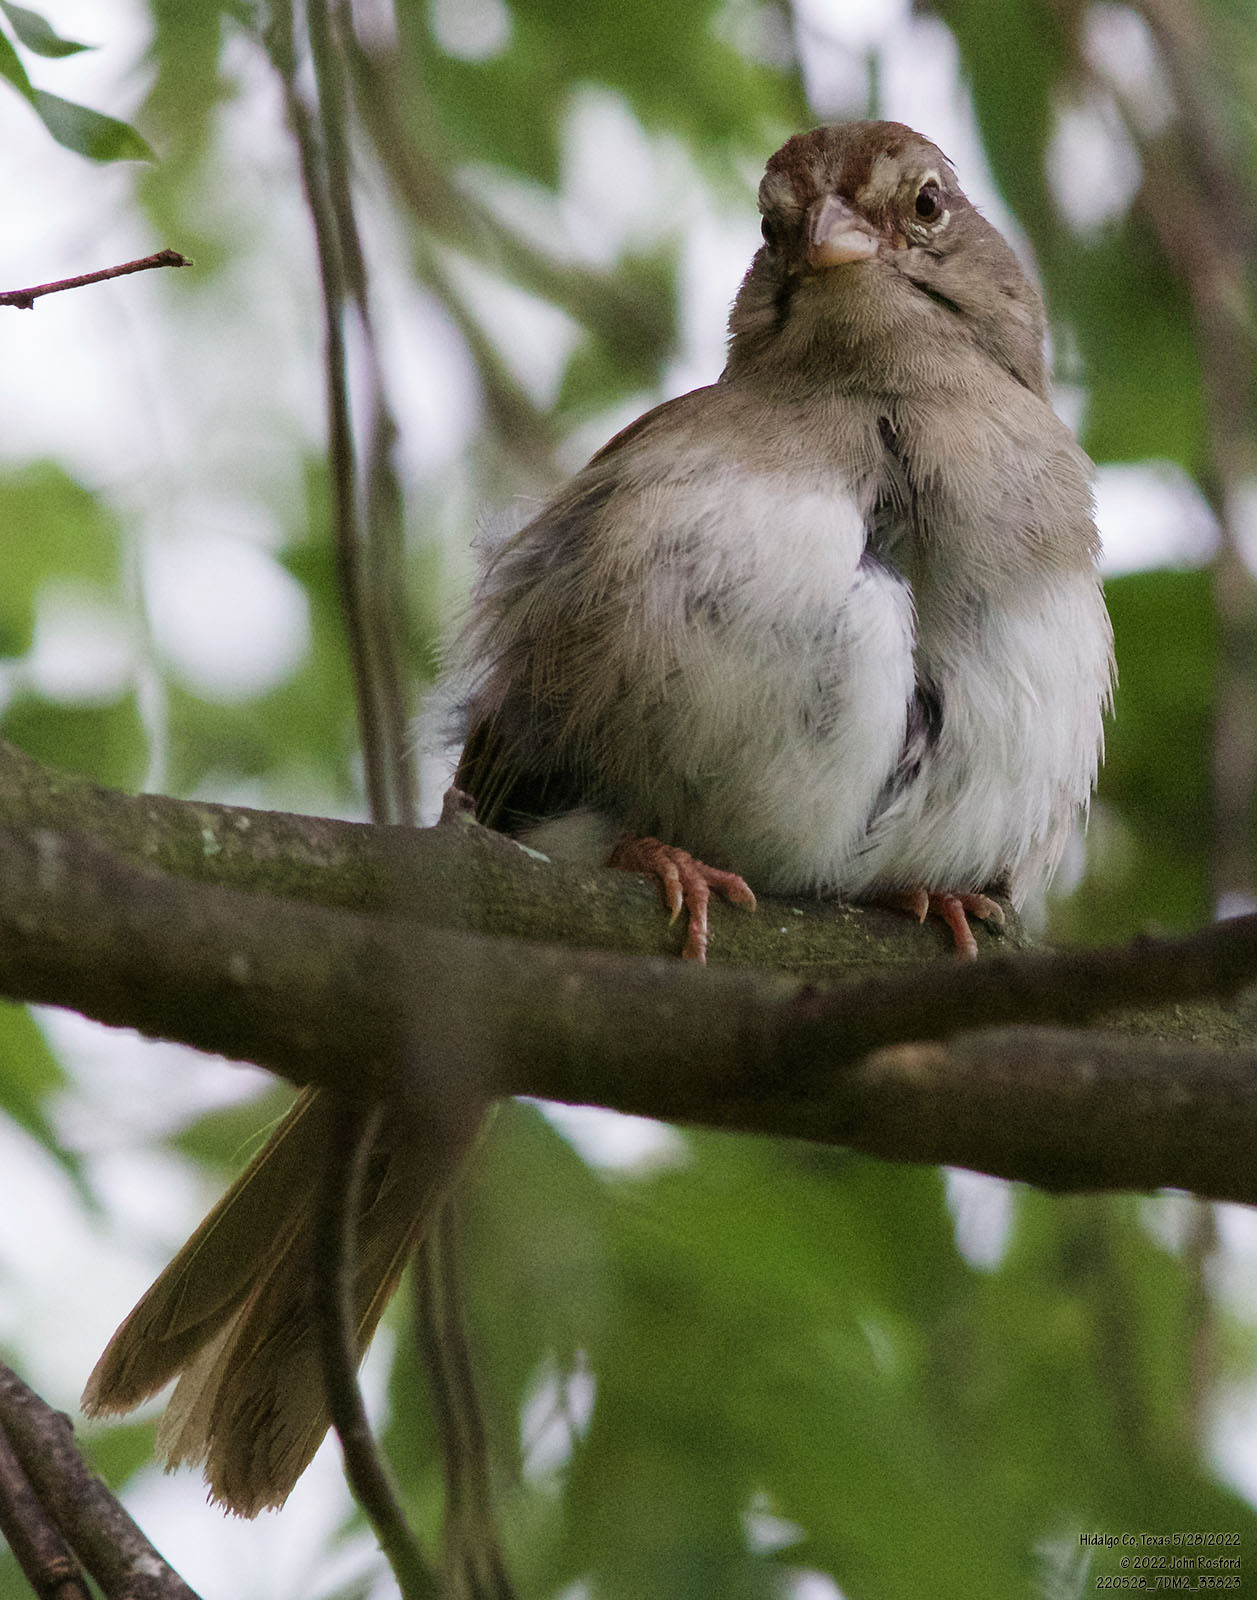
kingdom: Animalia
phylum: Chordata
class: Aves
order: Passeriformes
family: Passerellidae
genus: Arremonops
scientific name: Arremonops rufivirgatus
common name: Olive sparrow
